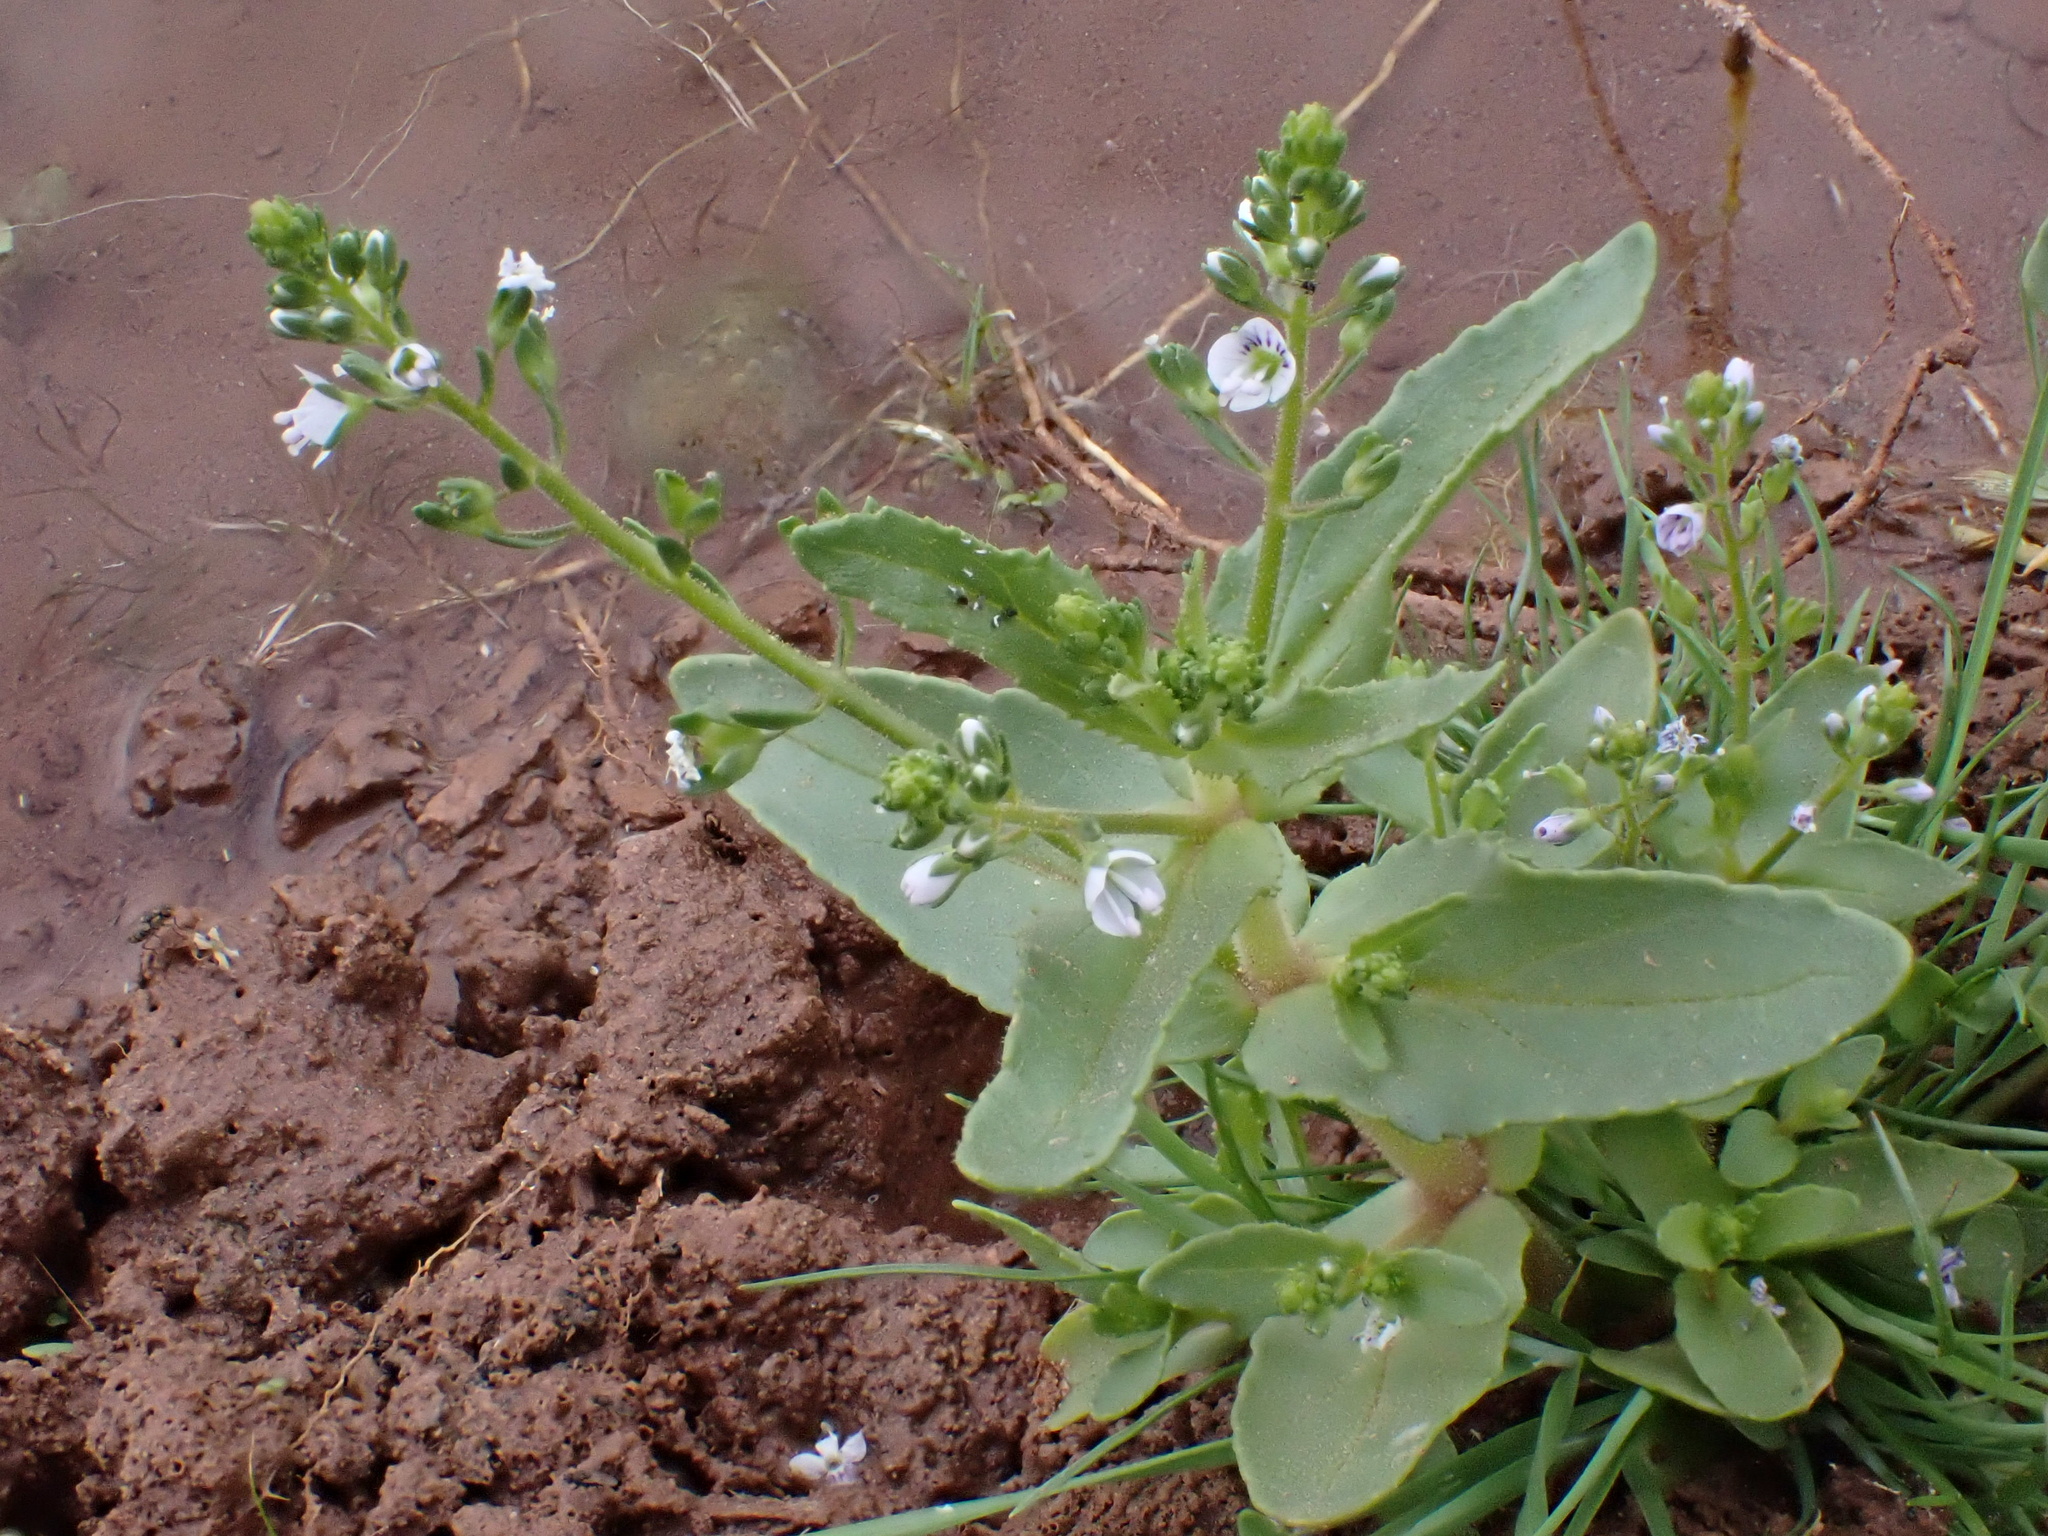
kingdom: Plantae
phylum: Tracheophyta
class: Magnoliopsida
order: Lamiales
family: Plantaginaceae
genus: Veronica
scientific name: Veronica anagalloides
